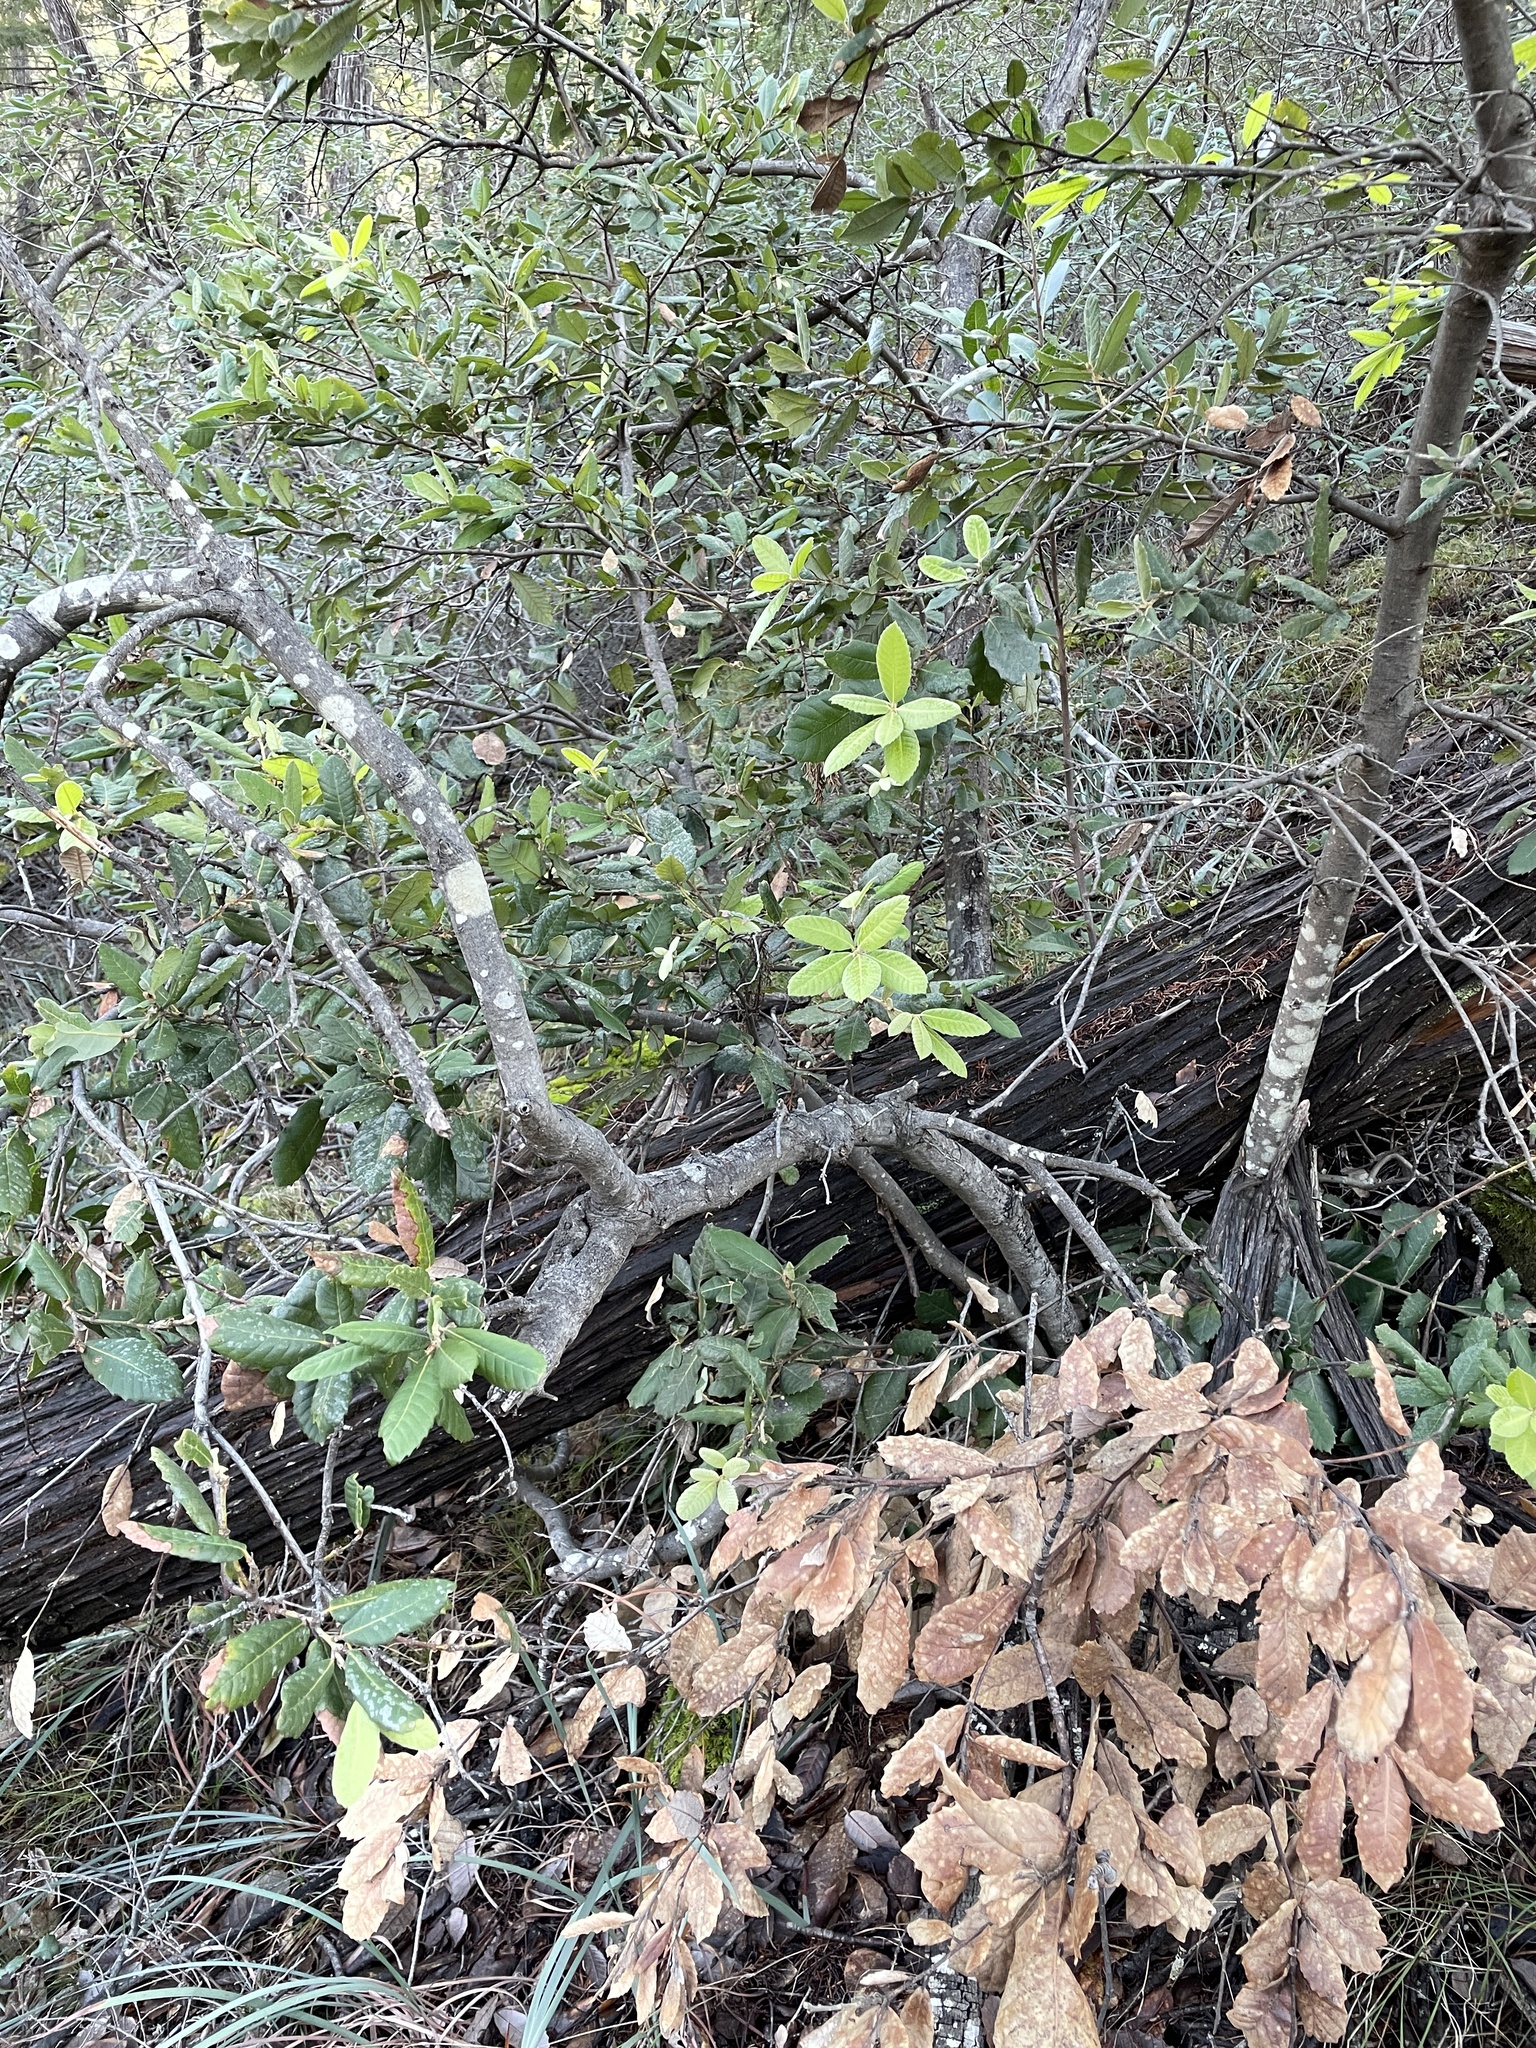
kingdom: Plantae
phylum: Tracheophyta
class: Magnoliopsida
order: Fagales
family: Fagaceae
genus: Notholithocarpus
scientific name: Notholithocarpus densiflorus
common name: Tan bark oak
